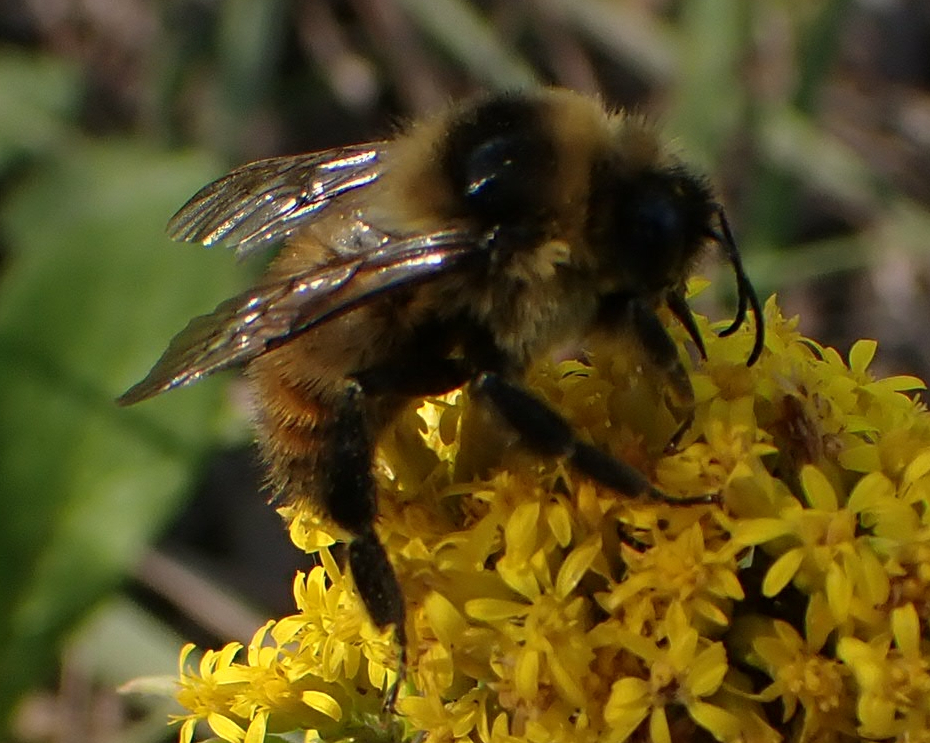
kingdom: Animalia
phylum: Arthropoda
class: Insecta
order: Hymenoptera
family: Apidae
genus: Bombus
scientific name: Bombus rufocinctus
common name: Red-belted bumble bee
